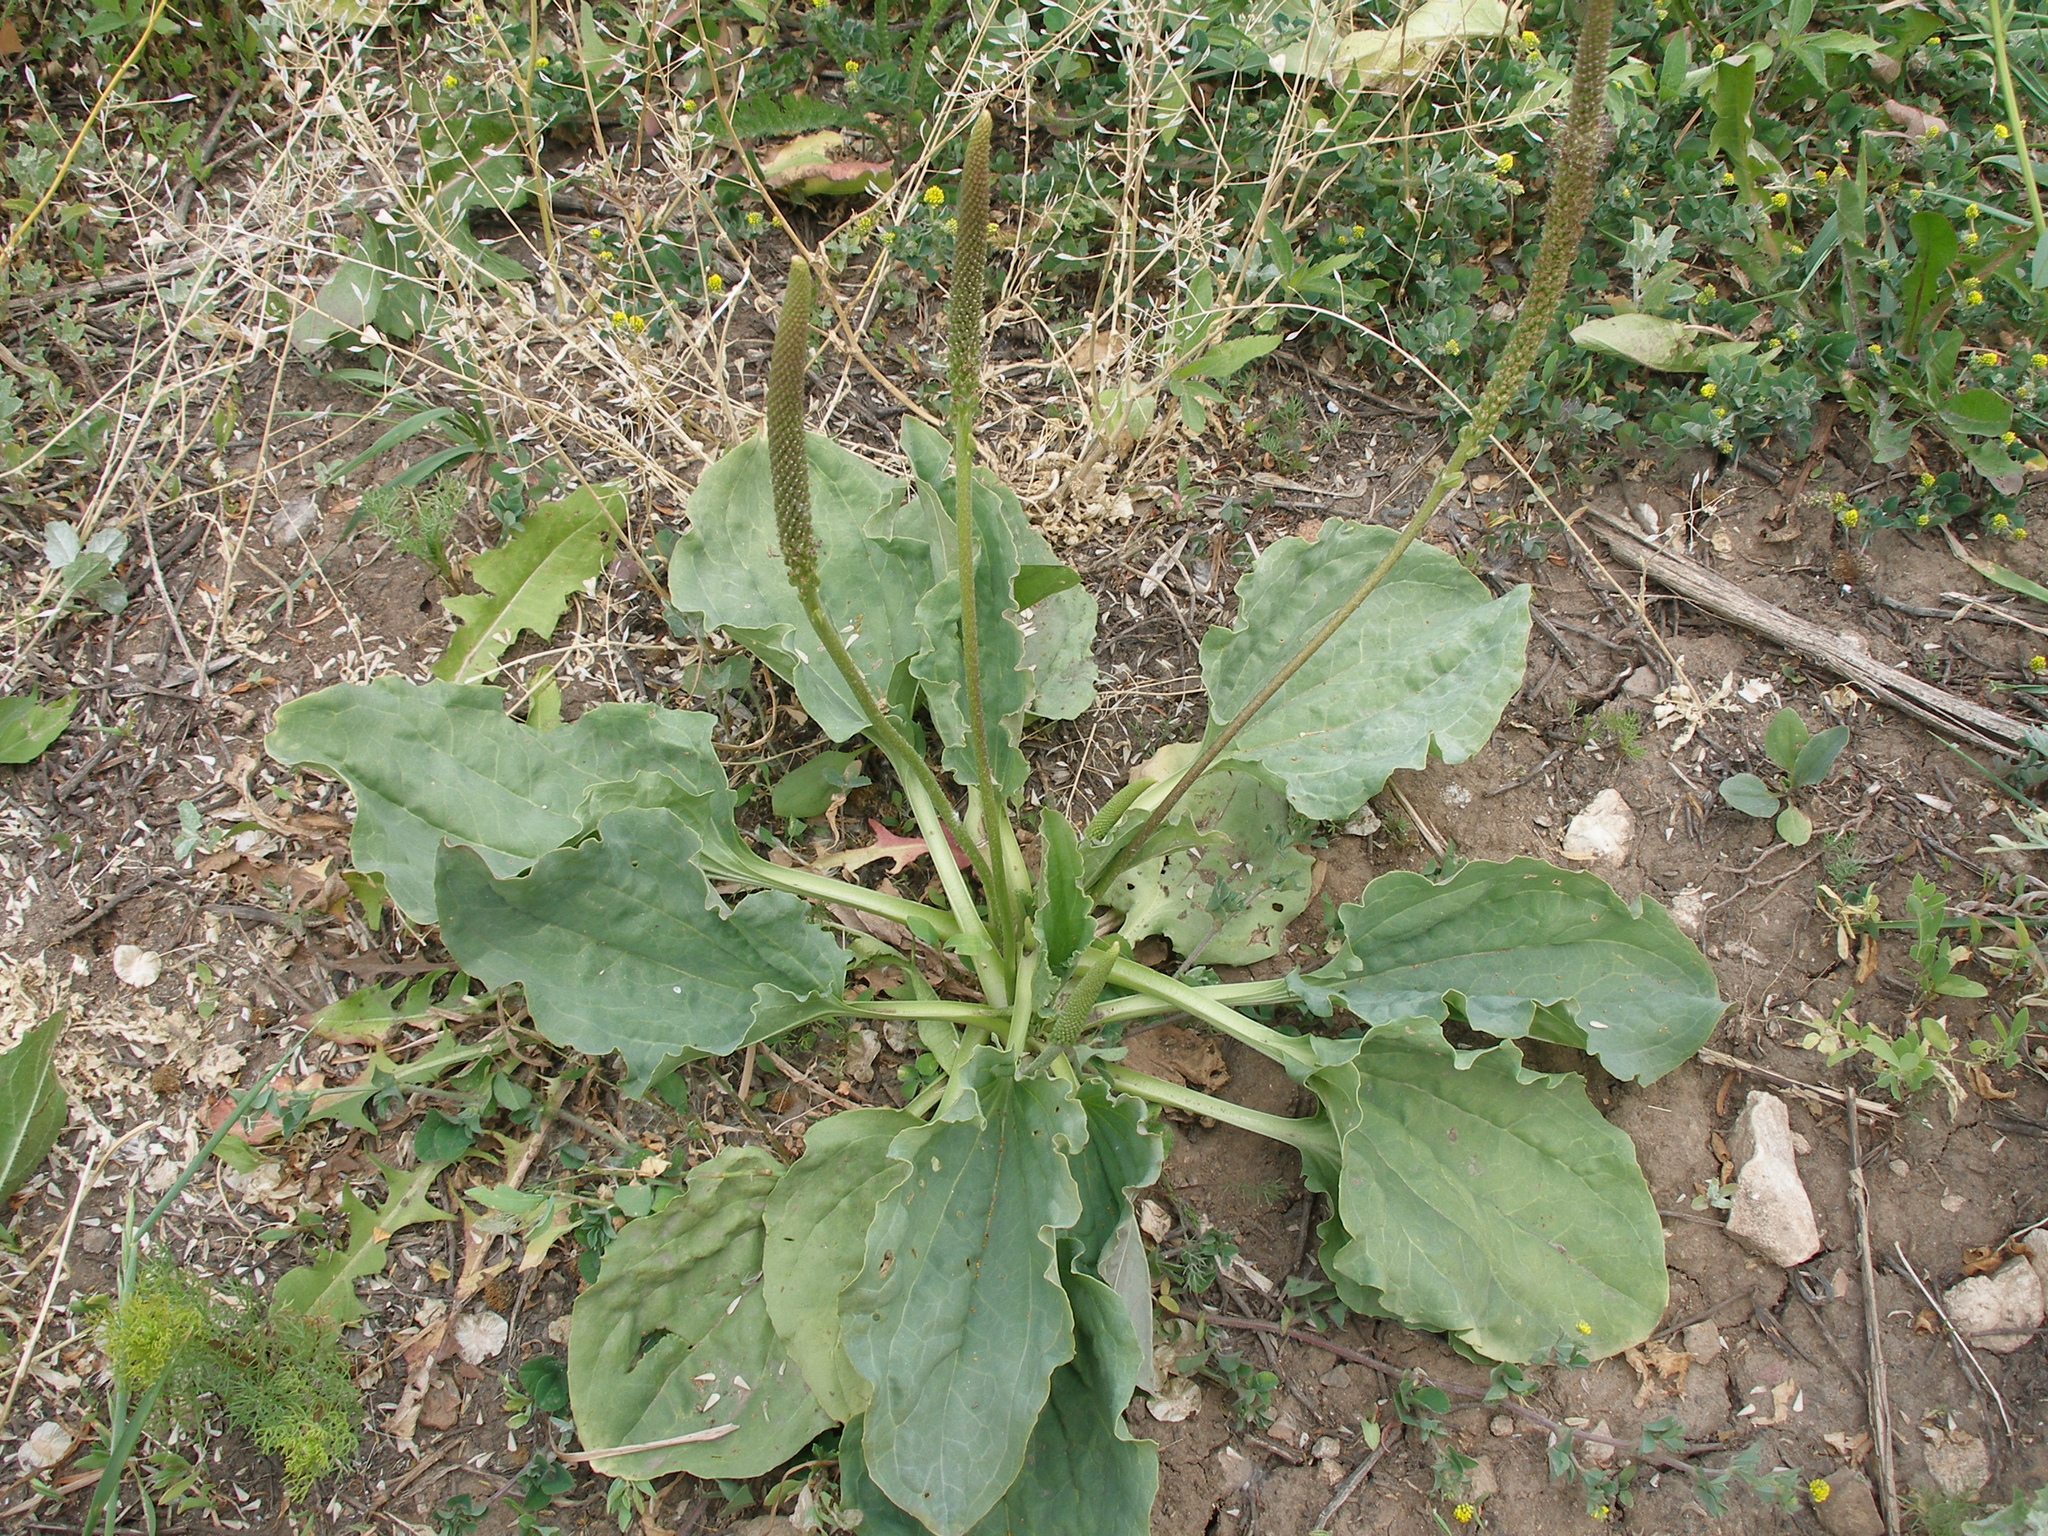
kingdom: Plantae
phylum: Tracheophyta
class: Magnoliopsida
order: Lamiales
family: Plantaginaceae
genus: Plantago
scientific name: Plantago major
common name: Common plantain
